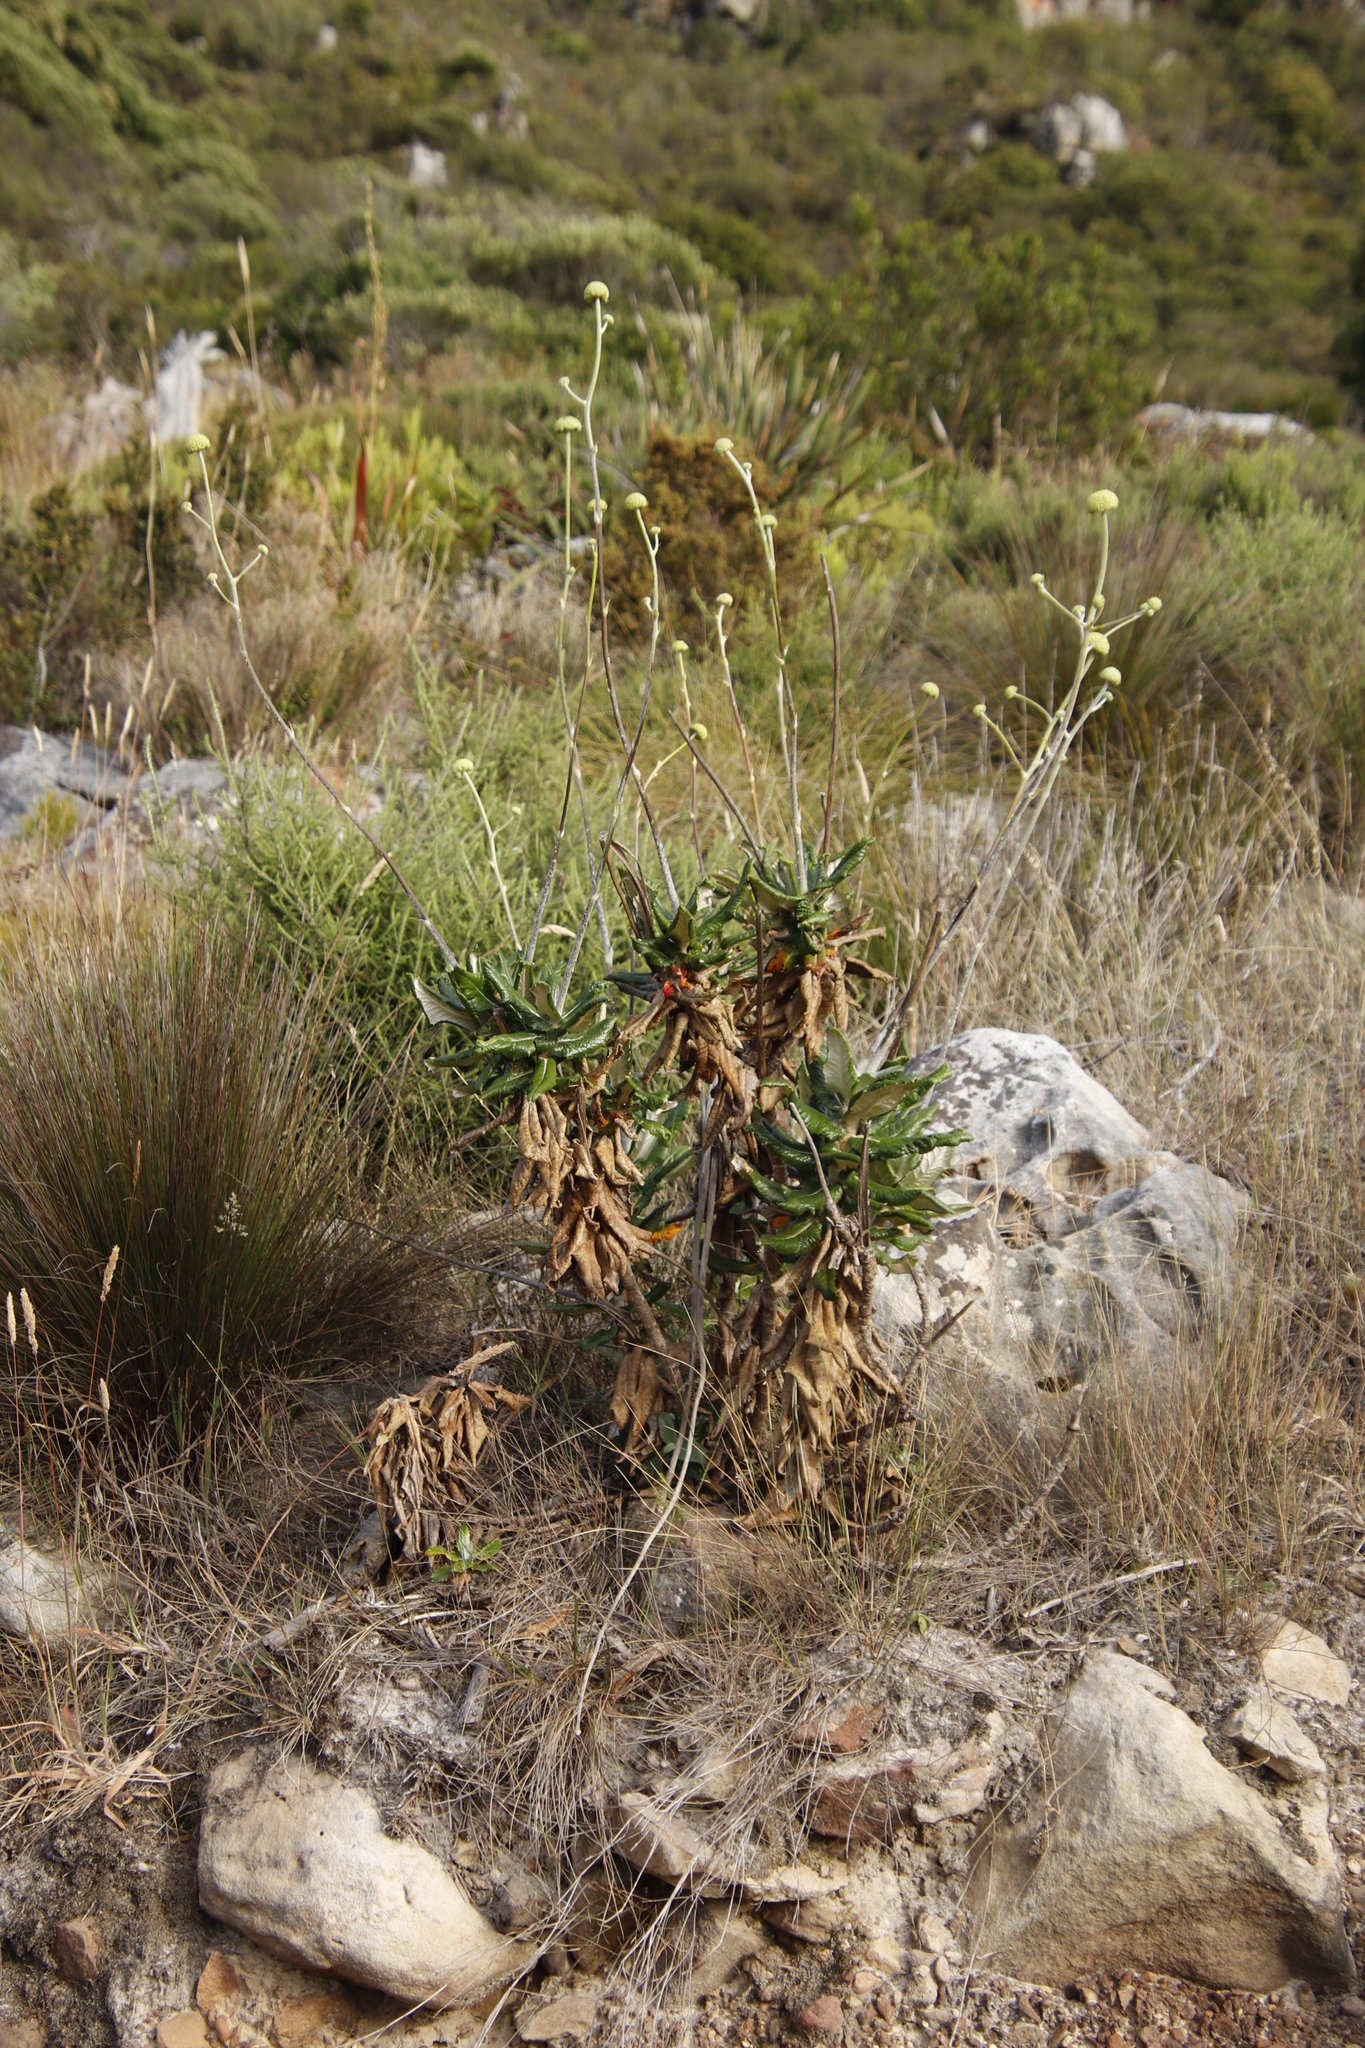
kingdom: Plantae
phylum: Tracheophyta
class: Magnoliopsida
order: Apiales
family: Apiaceae
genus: Hermas
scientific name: Hermas villosa
